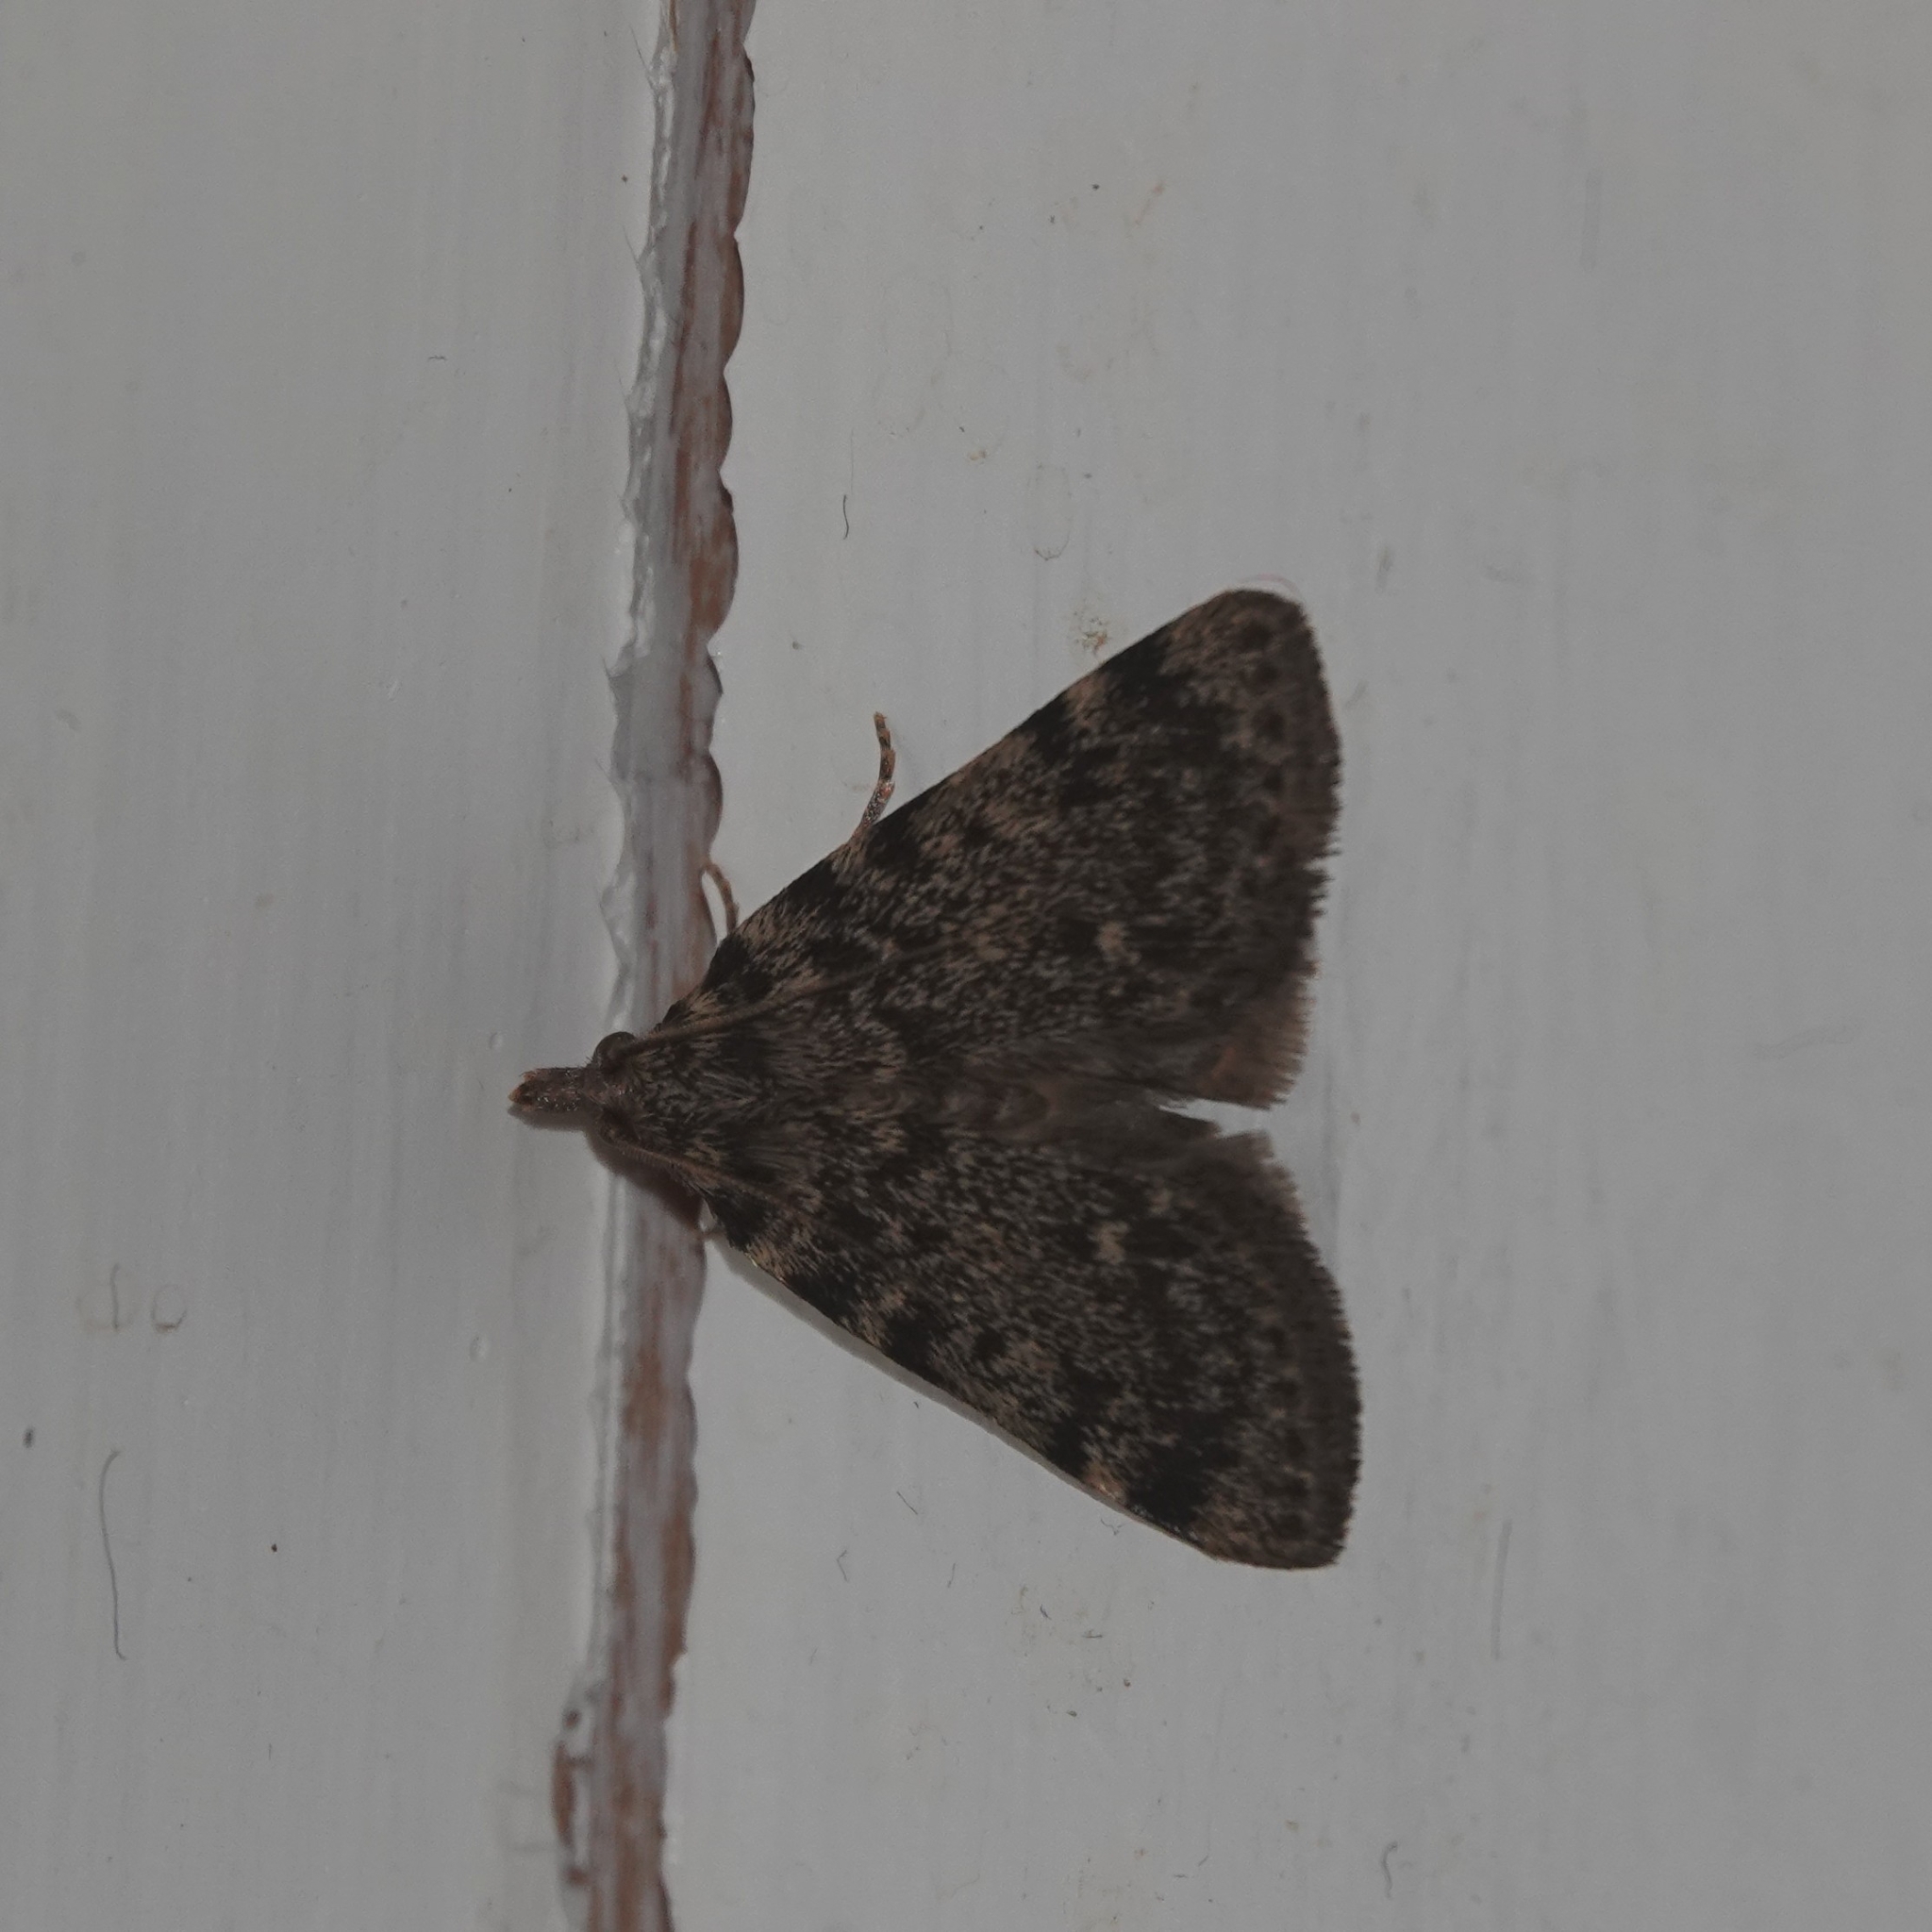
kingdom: Animalia
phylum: Arthropoda
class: Insecta
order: Lepidoptera
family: Pyralidae
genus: Aglossa
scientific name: Aglossa pinguinalis
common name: Large tabby
